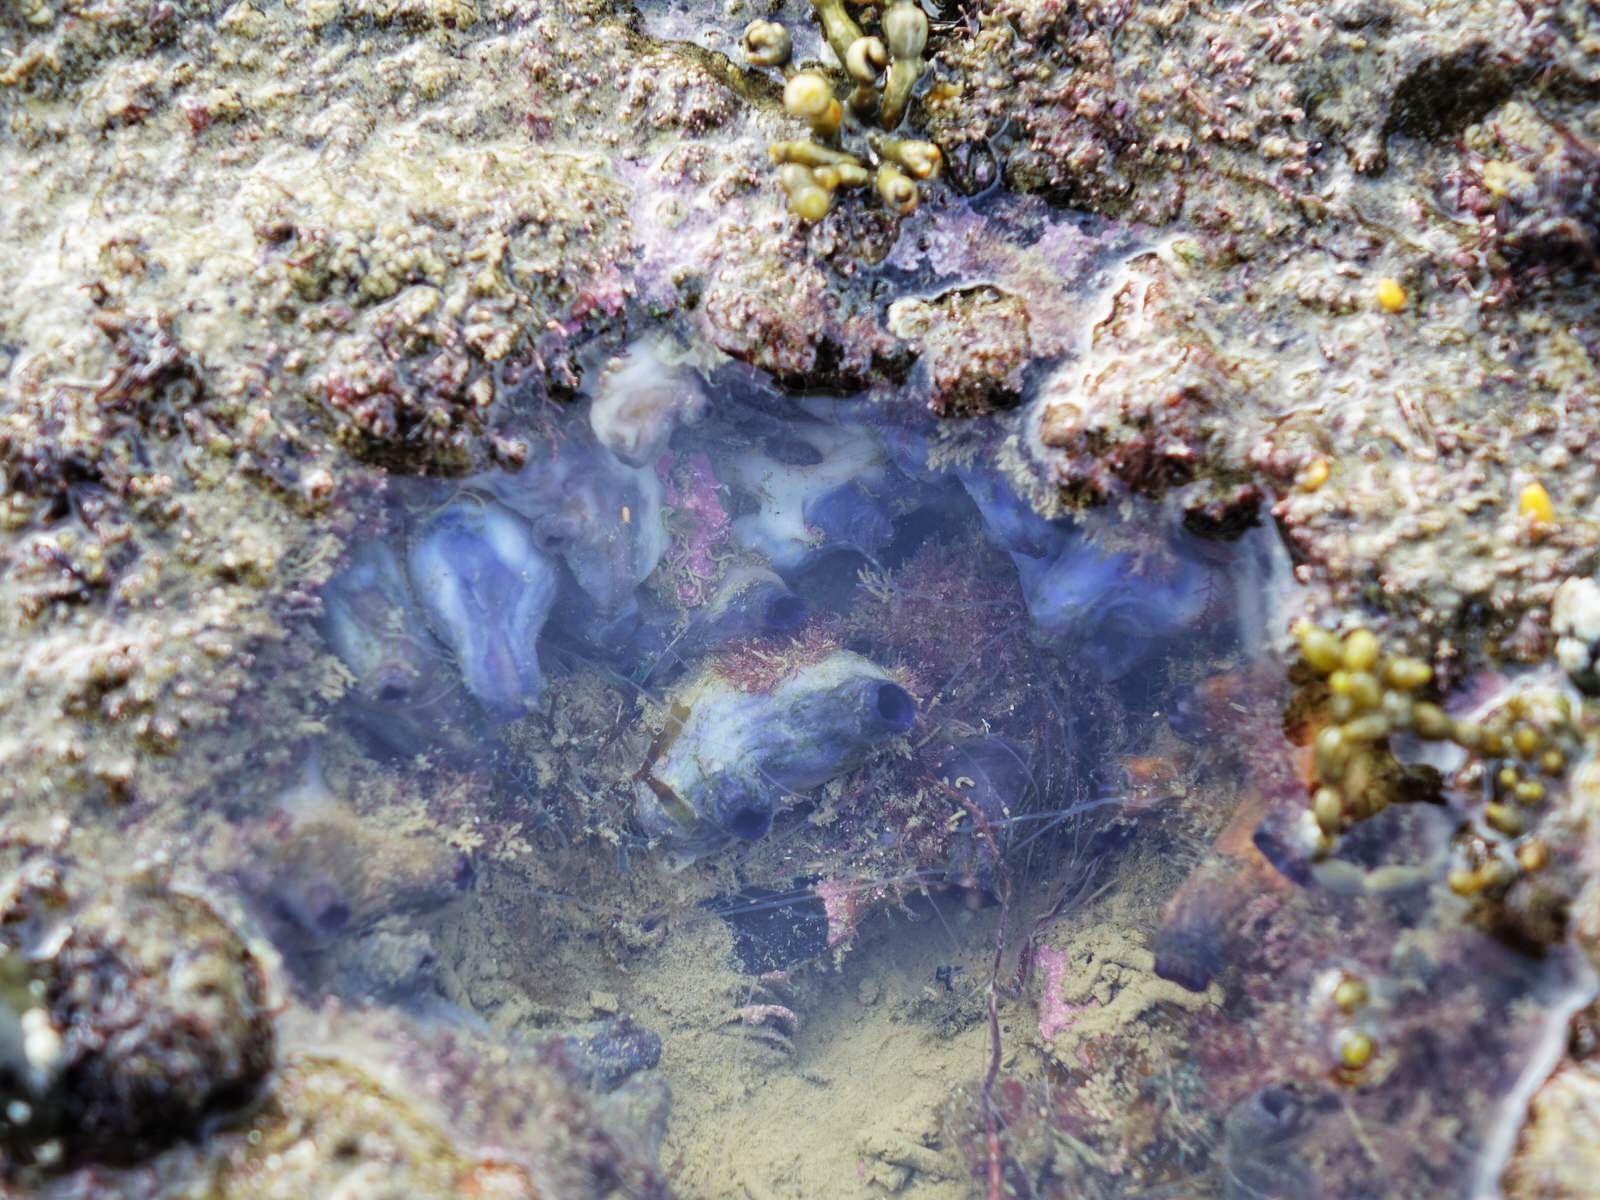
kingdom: Animalia
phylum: Chordata
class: Ascidiacea
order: Stolidobranchia
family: Styelidae
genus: Asterocarpa
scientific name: Asterocarpa coerulea
